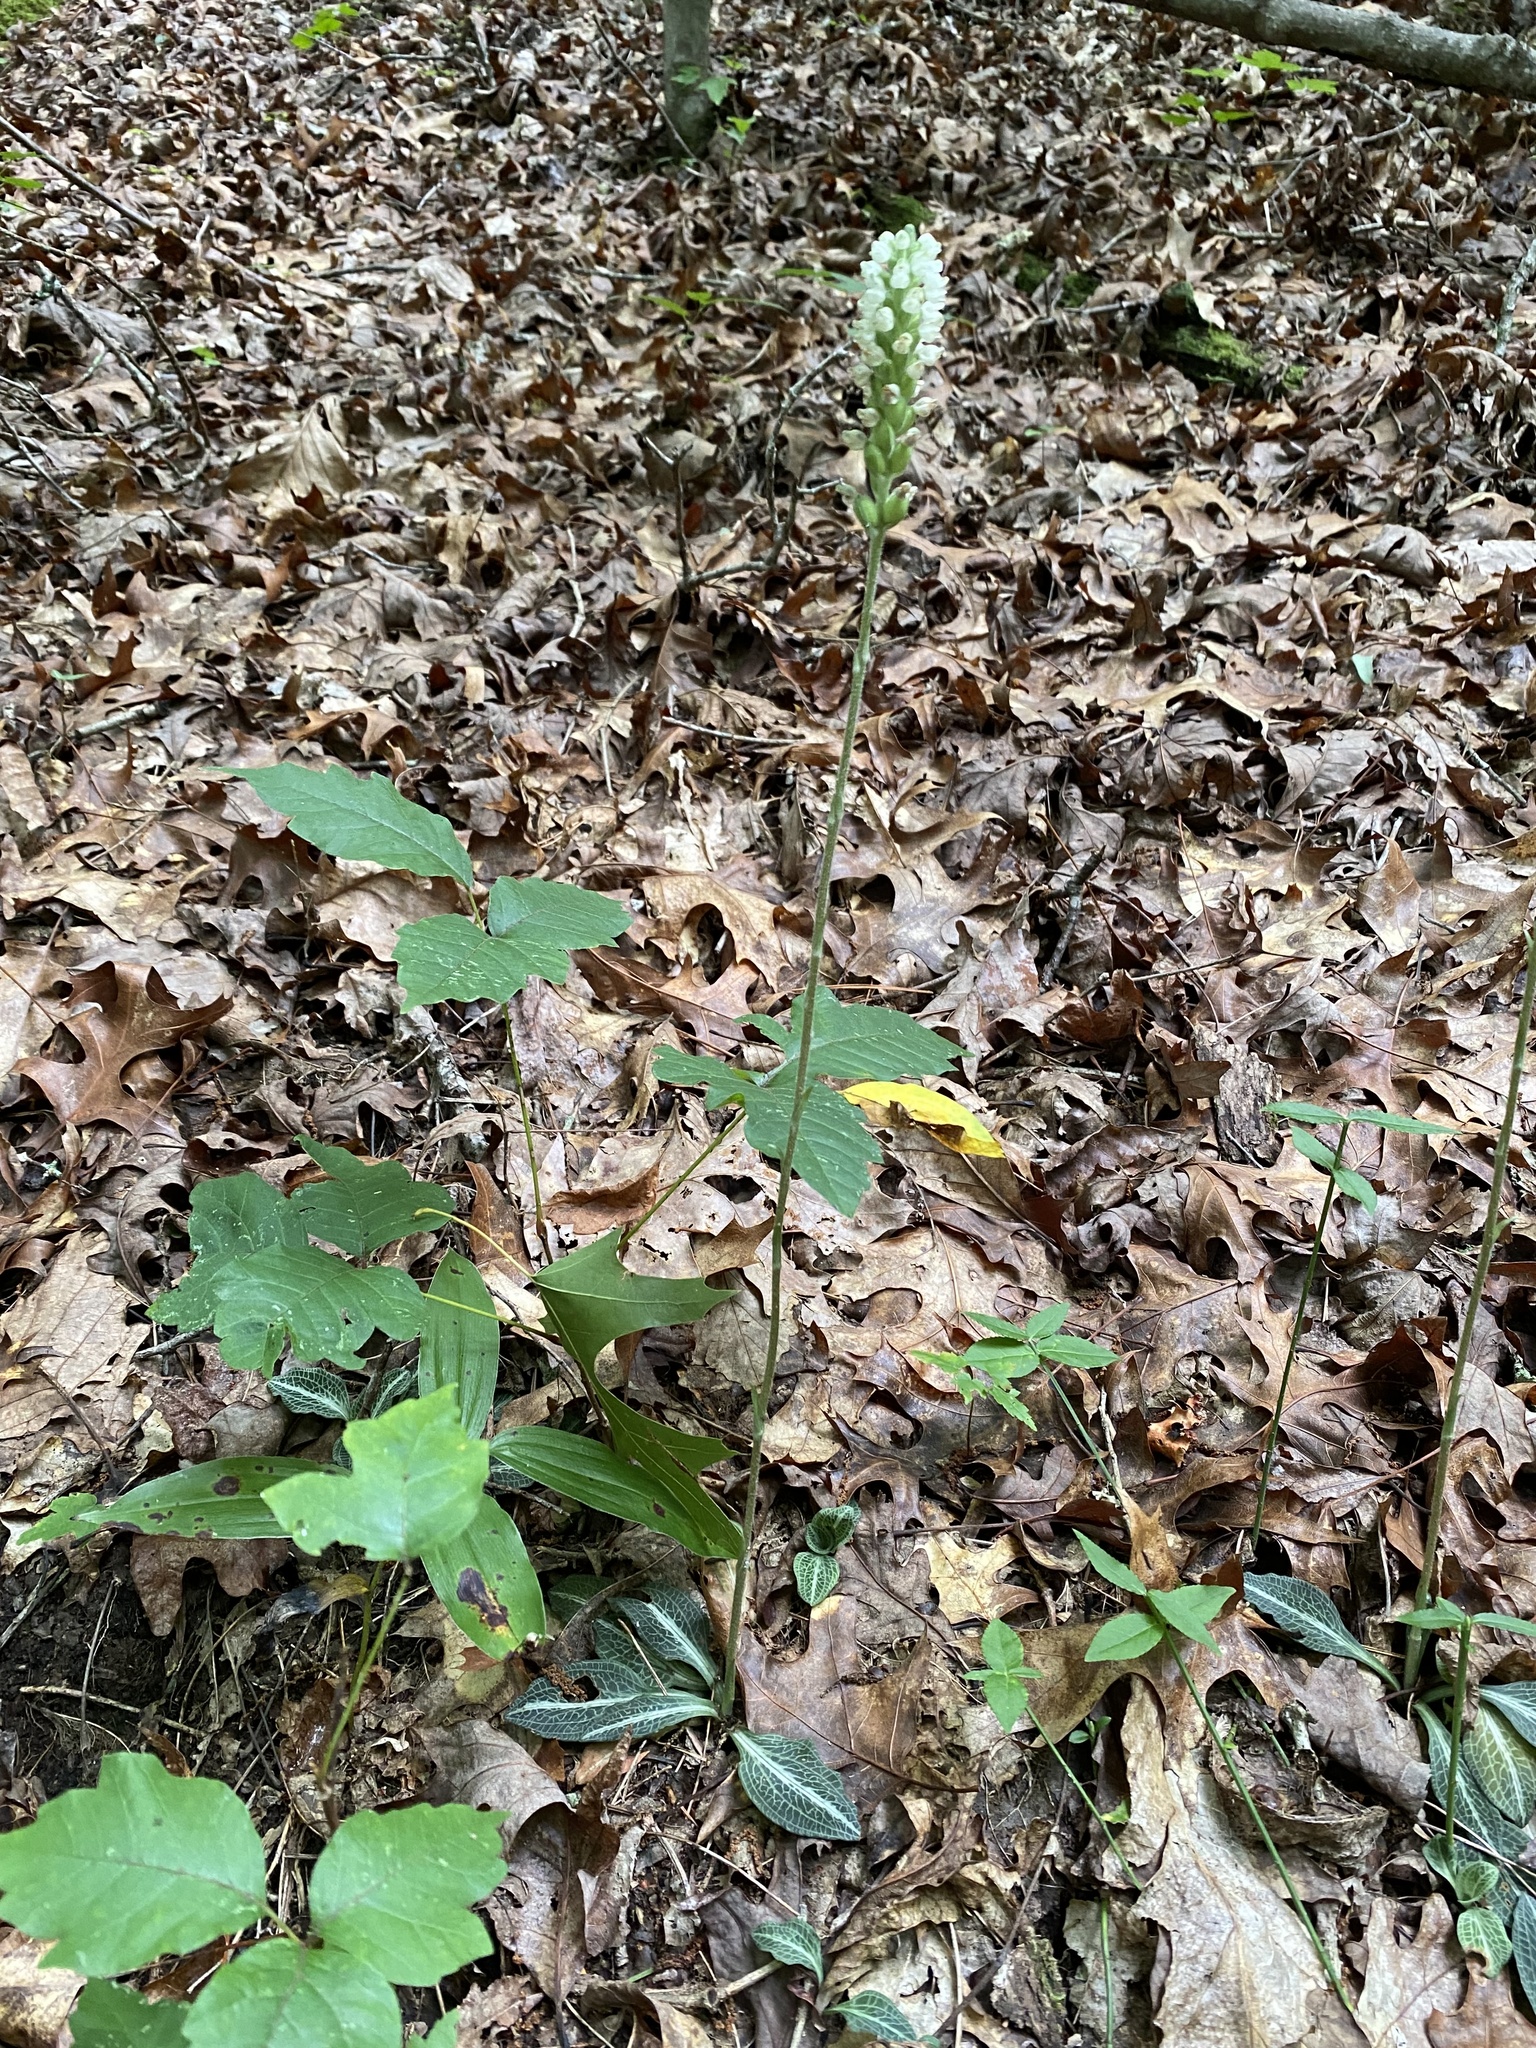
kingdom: Plantae
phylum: Tracheophyta
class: Liliopsida
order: Asparagales
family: Orchidaceae
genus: Goodyera
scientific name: Goodyera pubescens
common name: Downy rattlesnake-plantain
